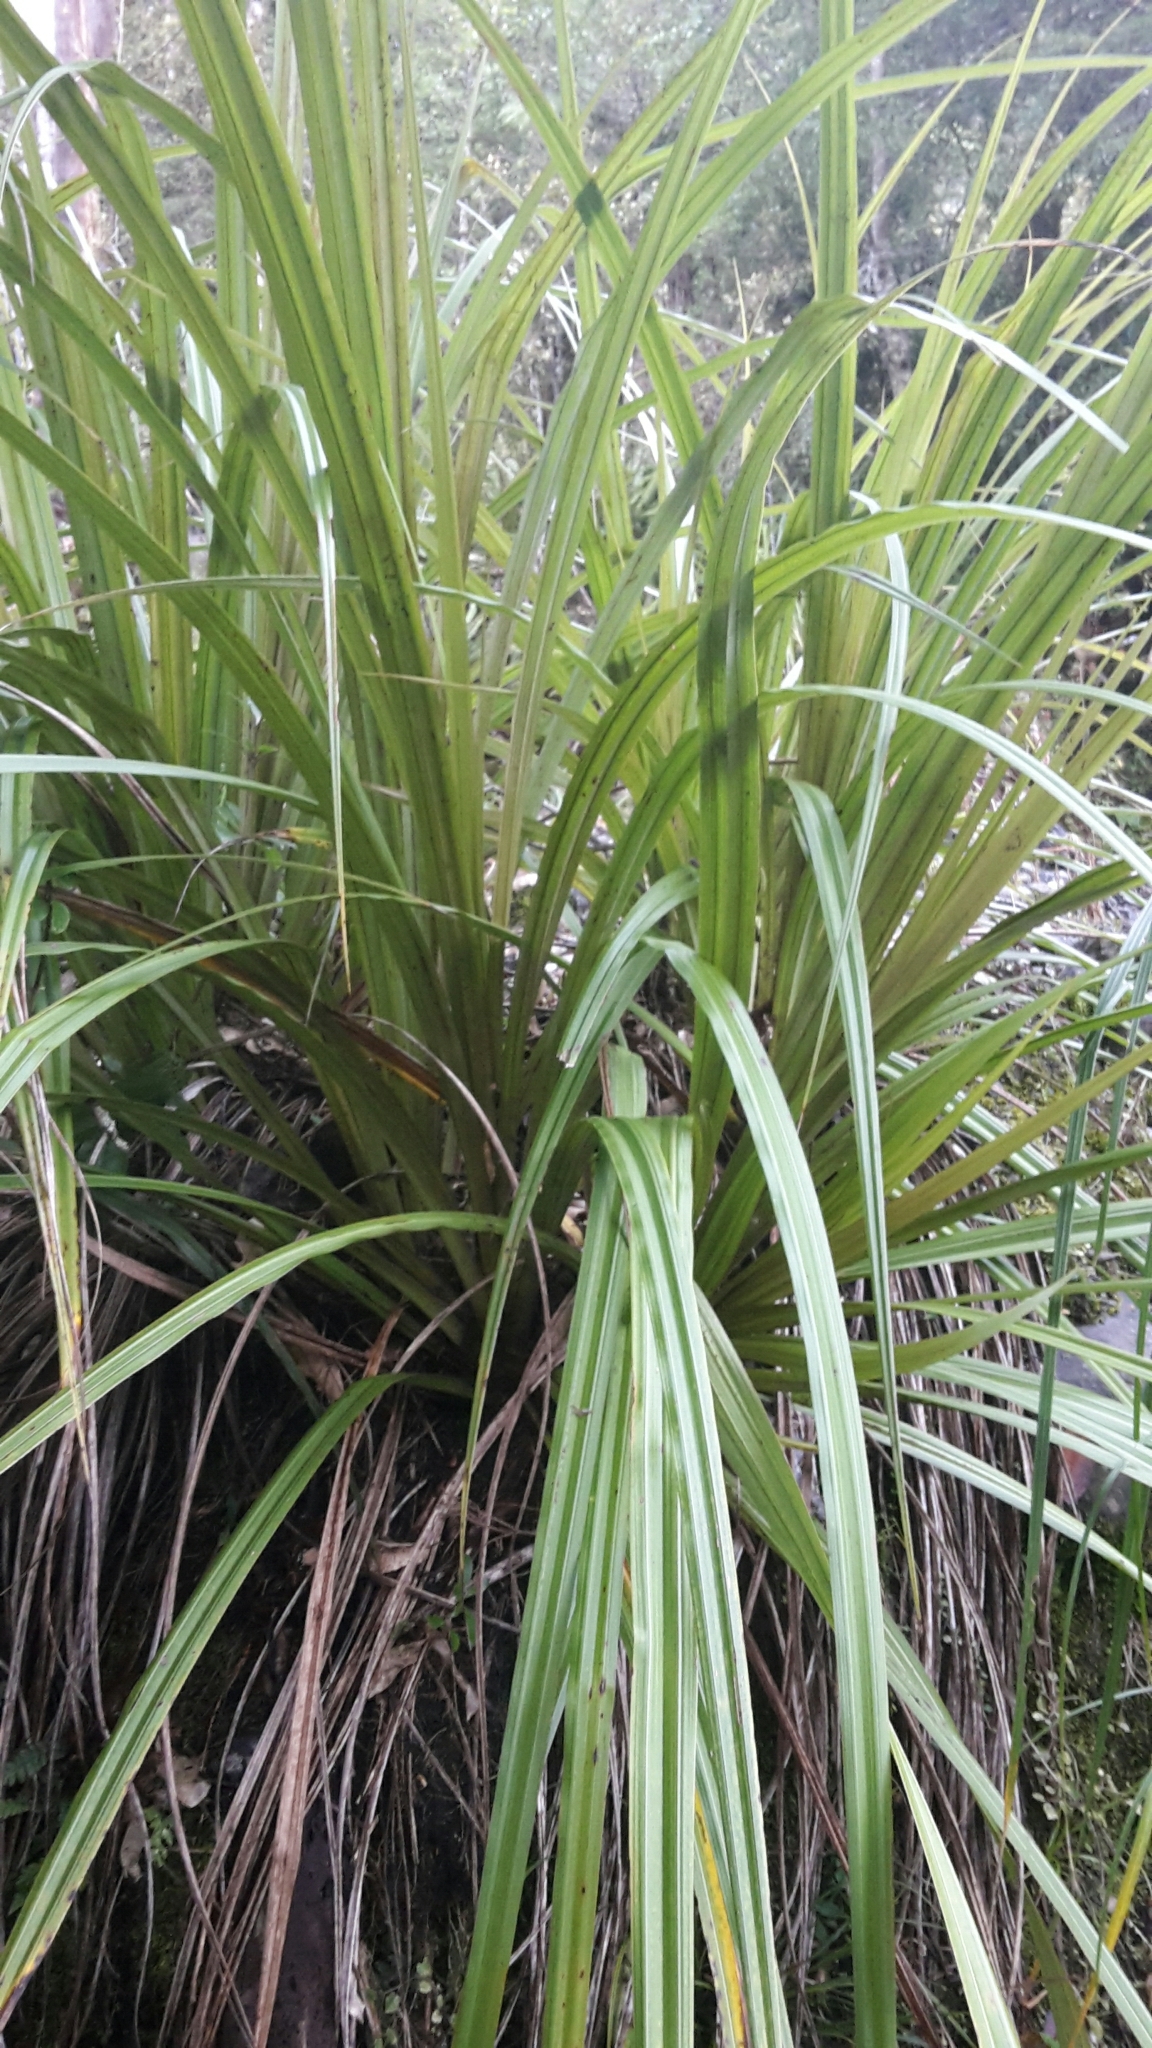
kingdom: Plantae
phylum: Tracheophyta
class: Liliopsida
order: Asparagales
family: Asteliaceae
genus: Astelia
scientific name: Astelia fragrans
